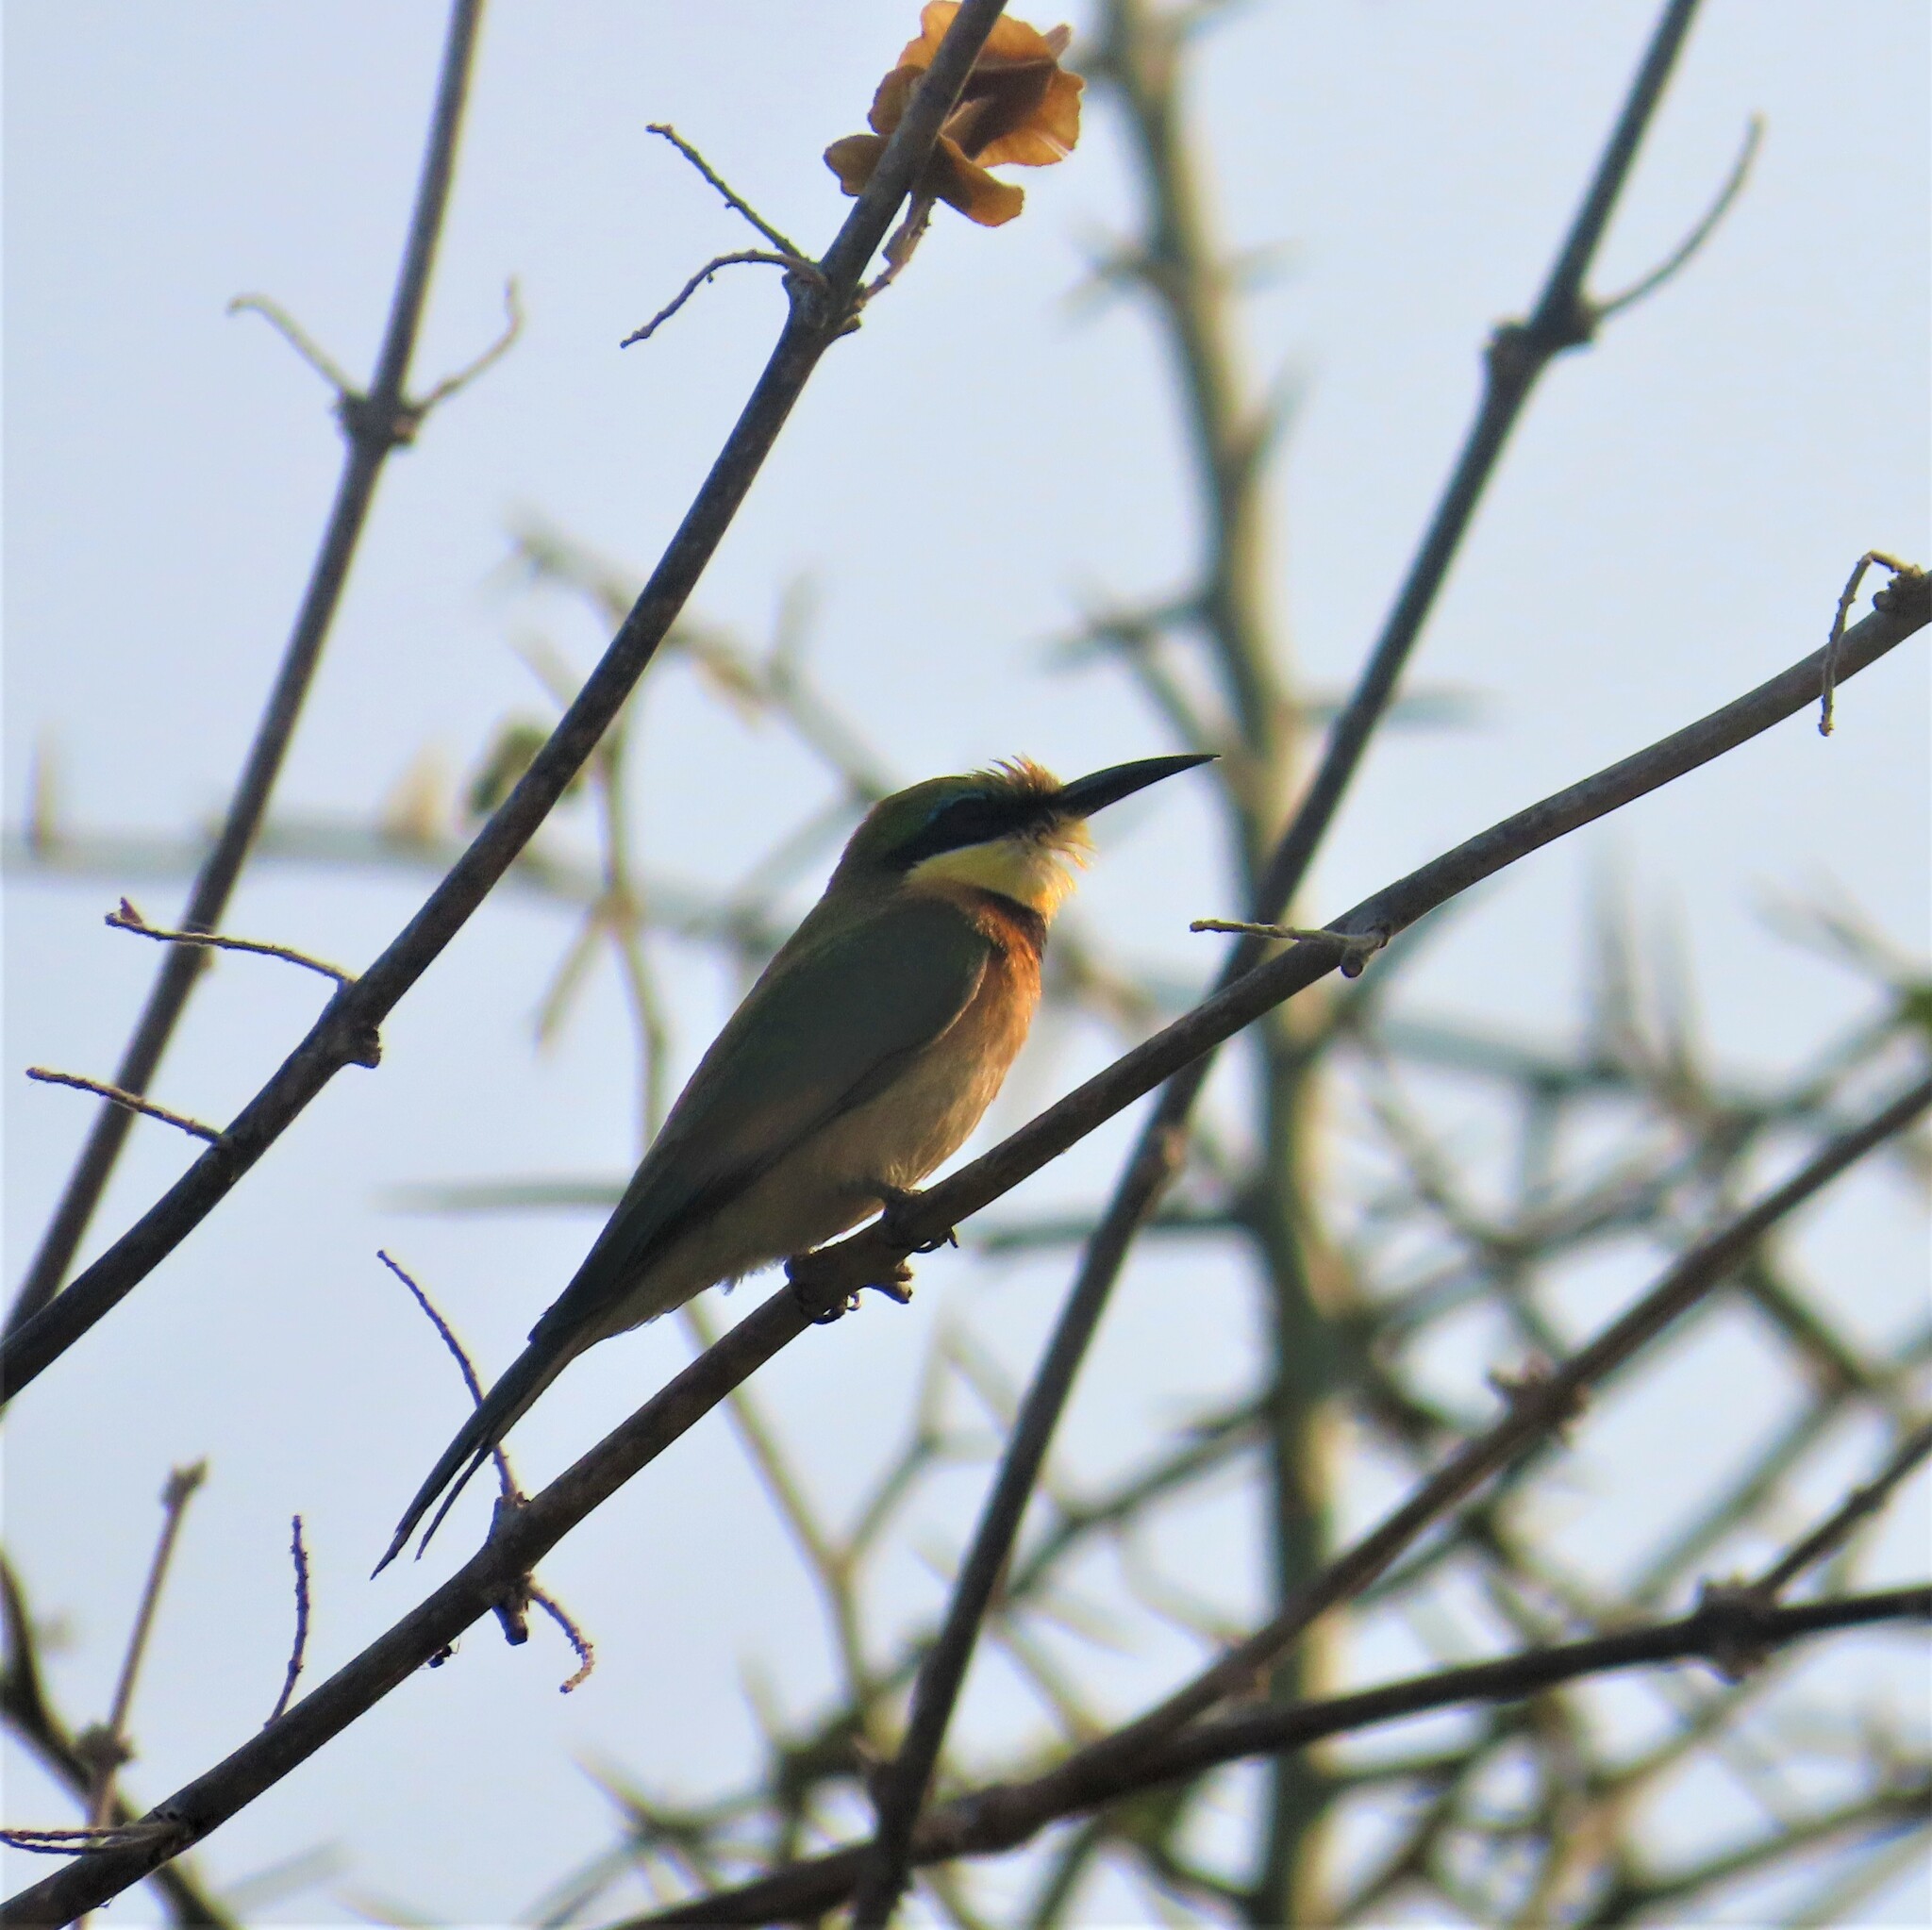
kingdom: Animalia
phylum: Chordata
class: Aves
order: Coraciiformes
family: Meropidae
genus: Merops
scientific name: Merops pusillus
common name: Little bee-eater
